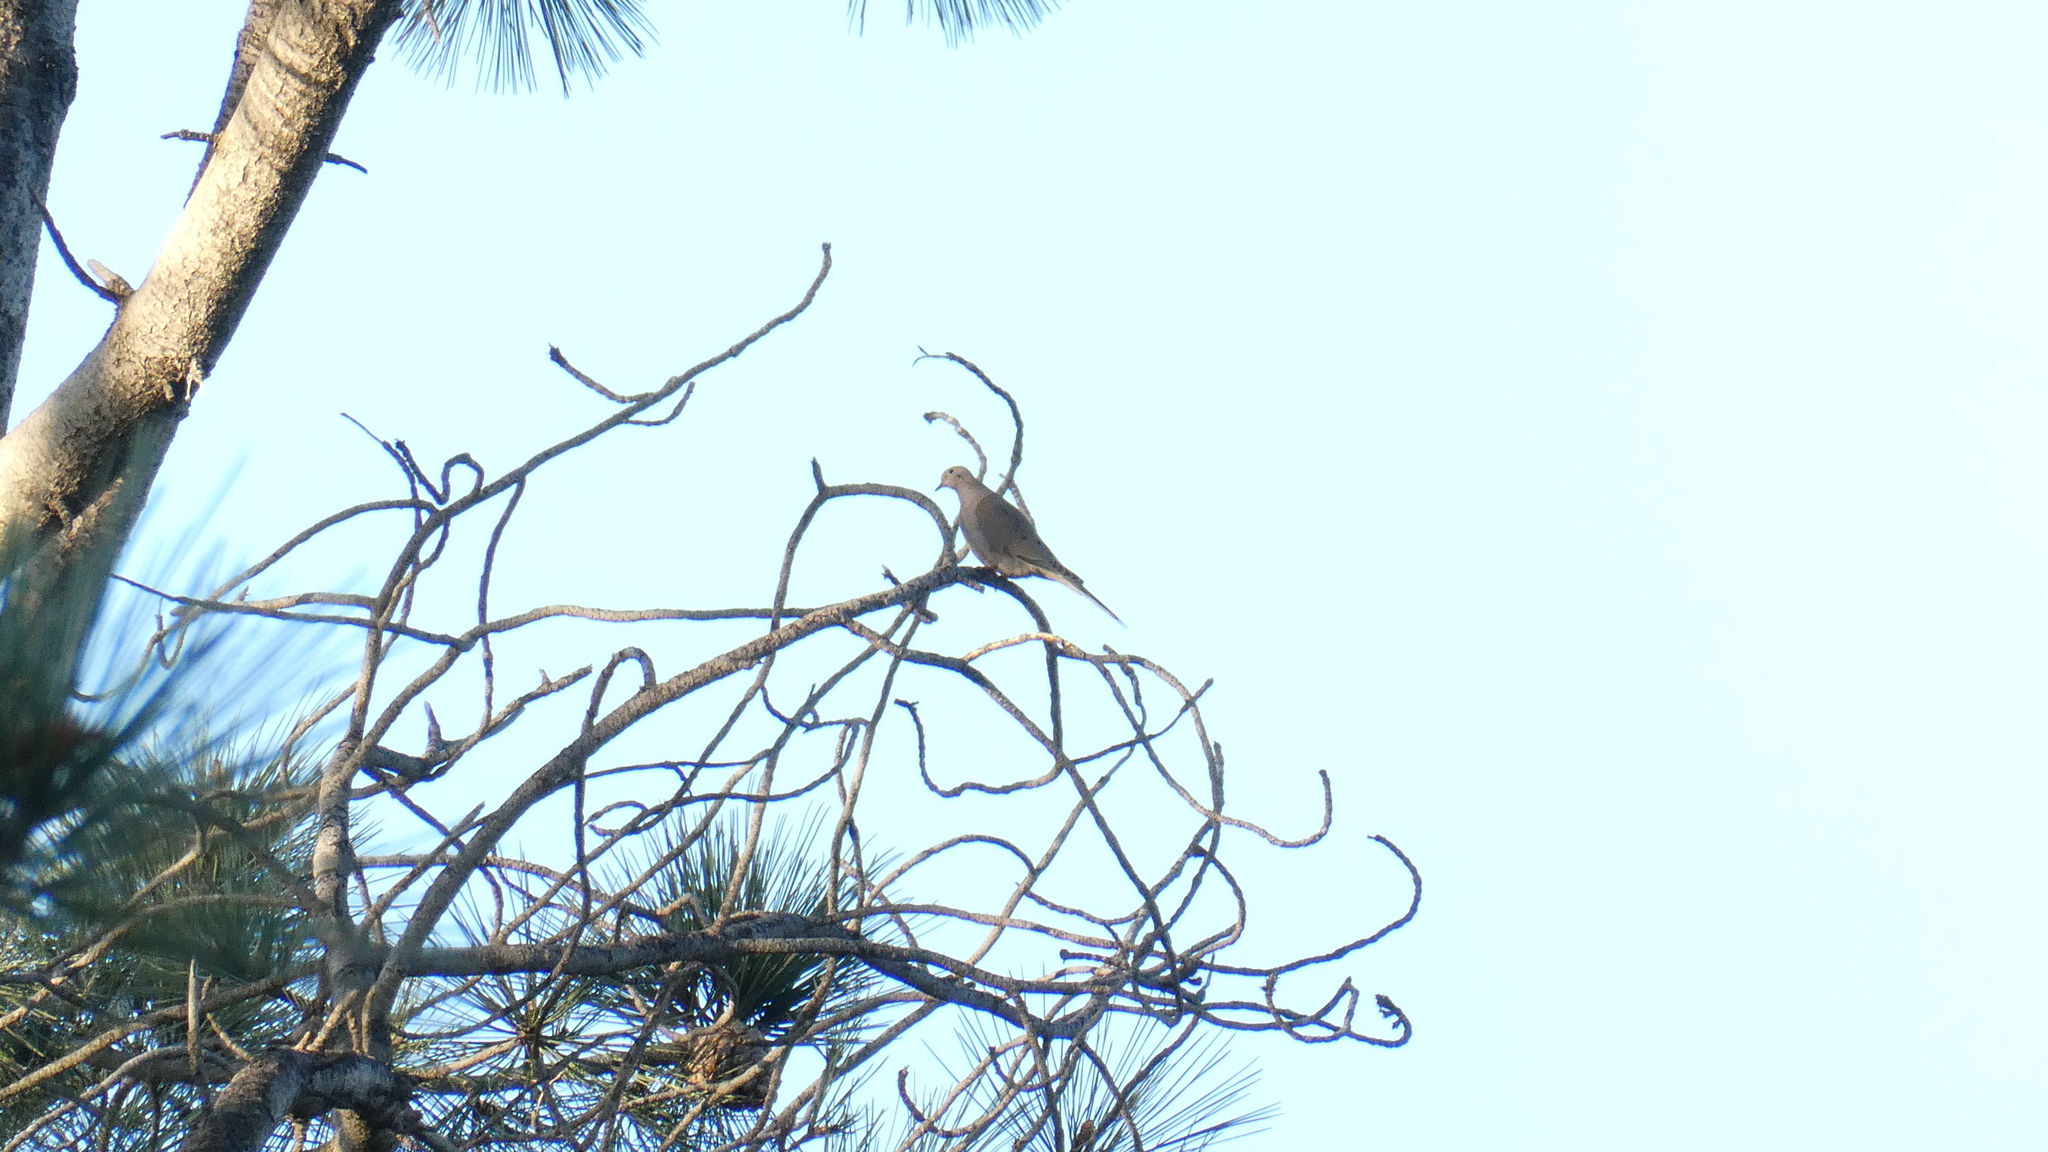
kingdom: Animalia
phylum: Chordata
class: Aves
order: Columbiformes
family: Columbidae
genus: Zenaida
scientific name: Zenaida macroura
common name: Mourning dove
